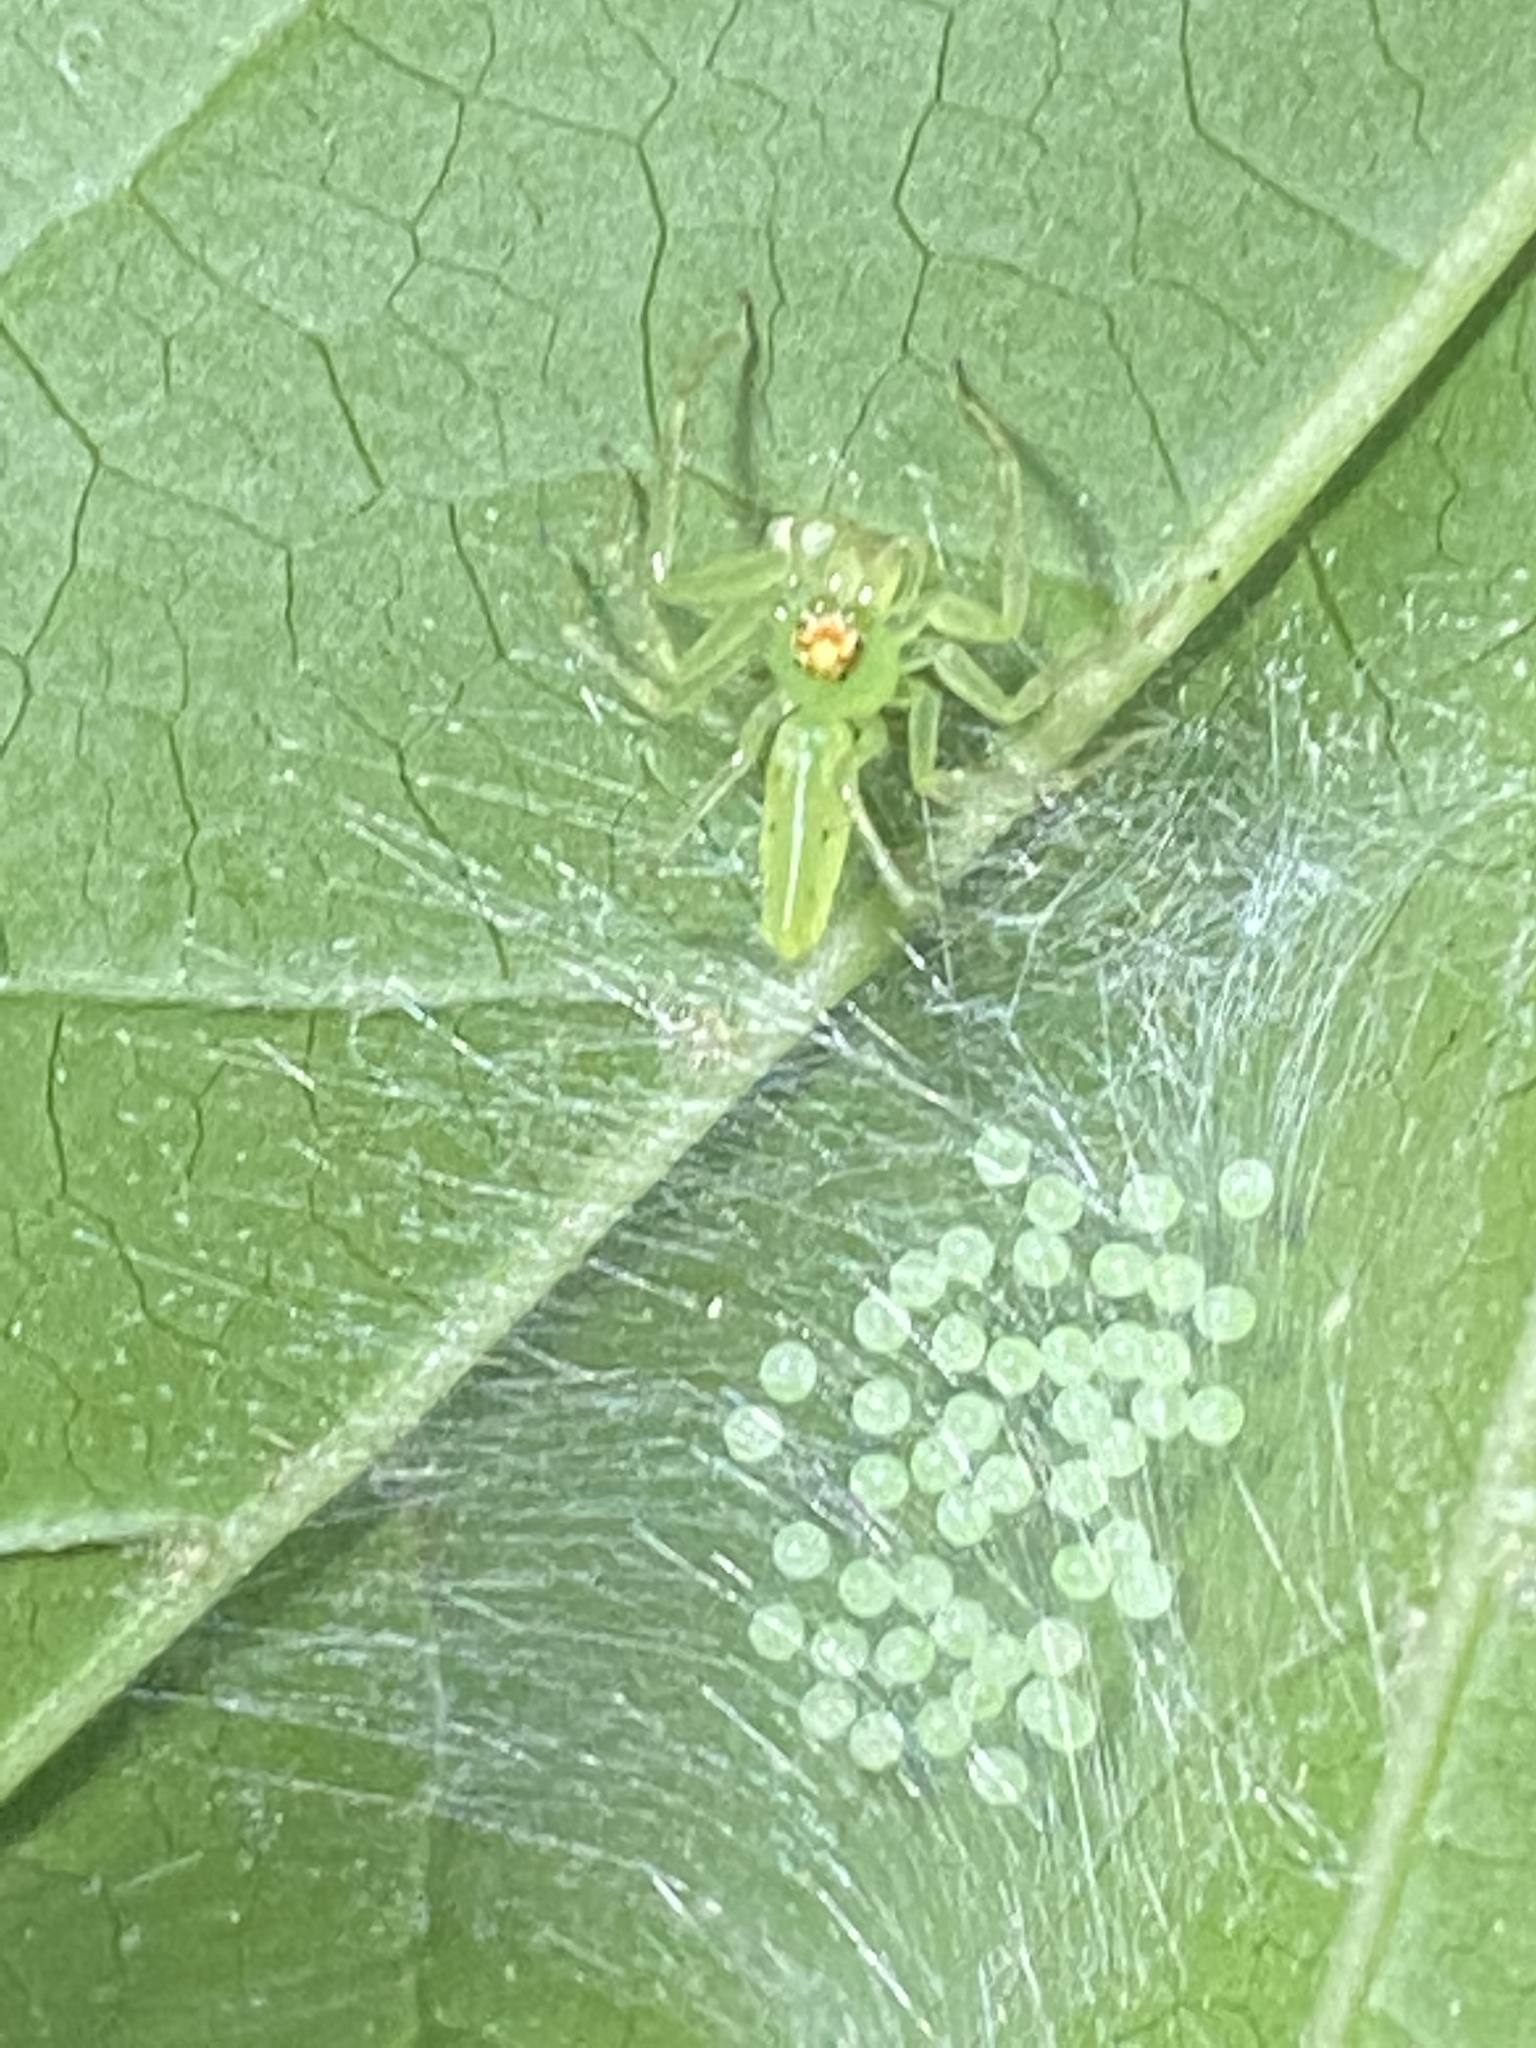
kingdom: Animalia
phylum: Arthropoda
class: Arachnida
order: Araneae
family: Salticidae
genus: Lyssomanes
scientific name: Lyssomanes viridis
